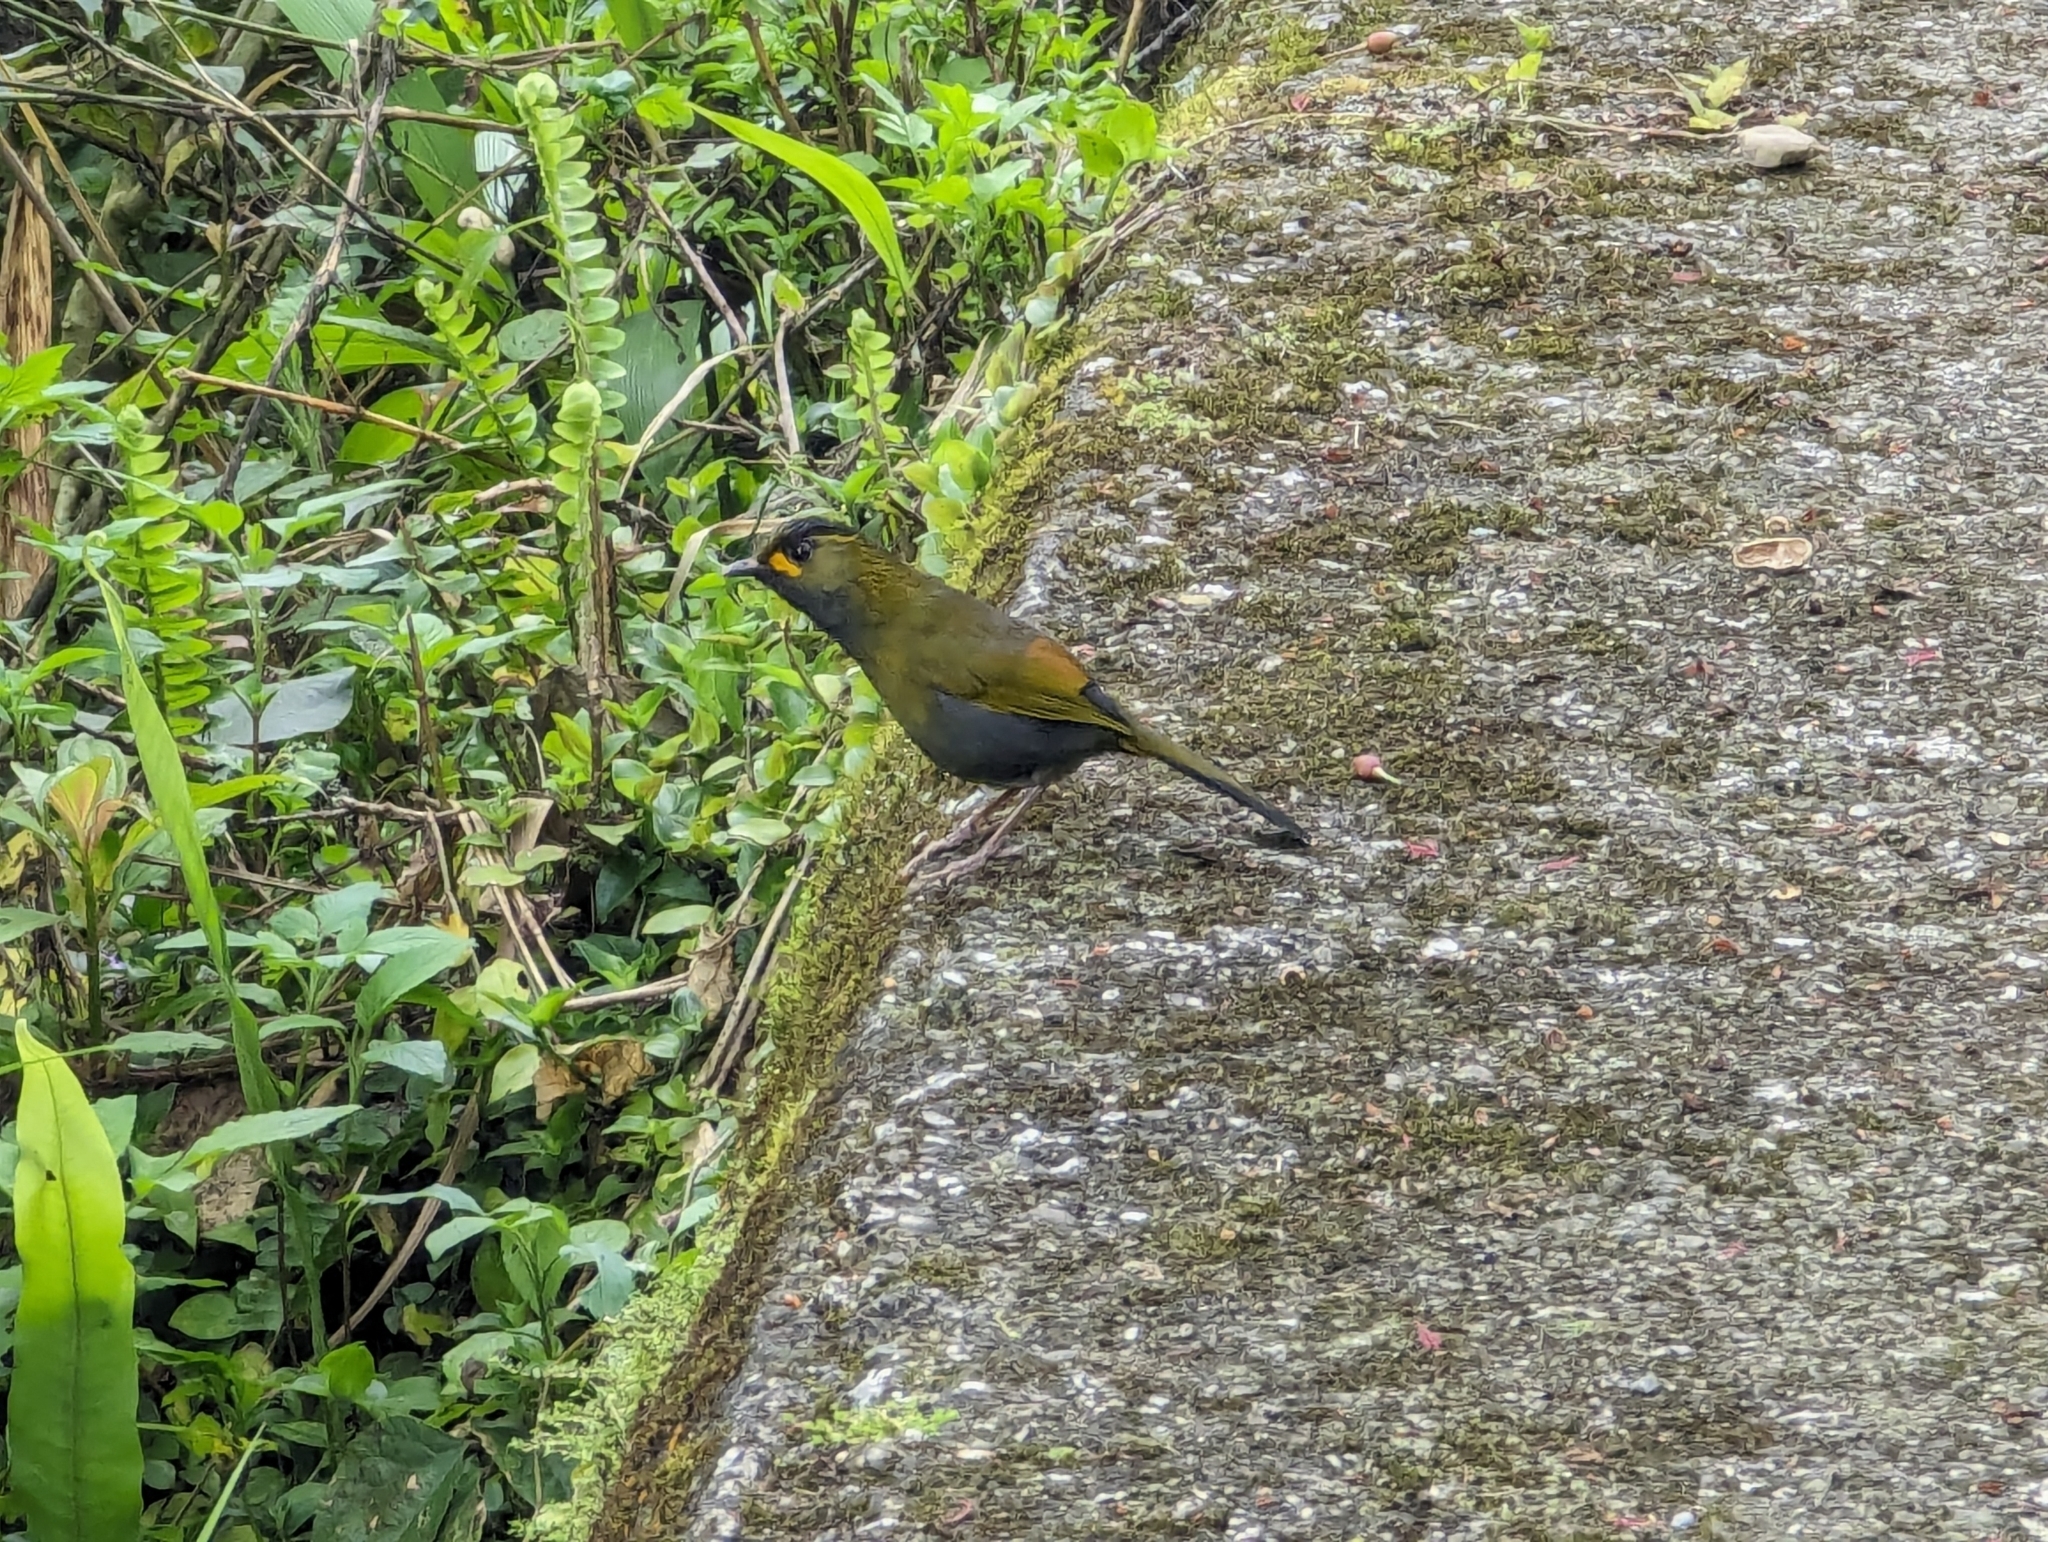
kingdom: Animalia
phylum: Chordata
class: Aves
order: Passeriformes
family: Leiothrichidae
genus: Liocichla
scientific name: Liocichla steerii
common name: Steere's liocichla
